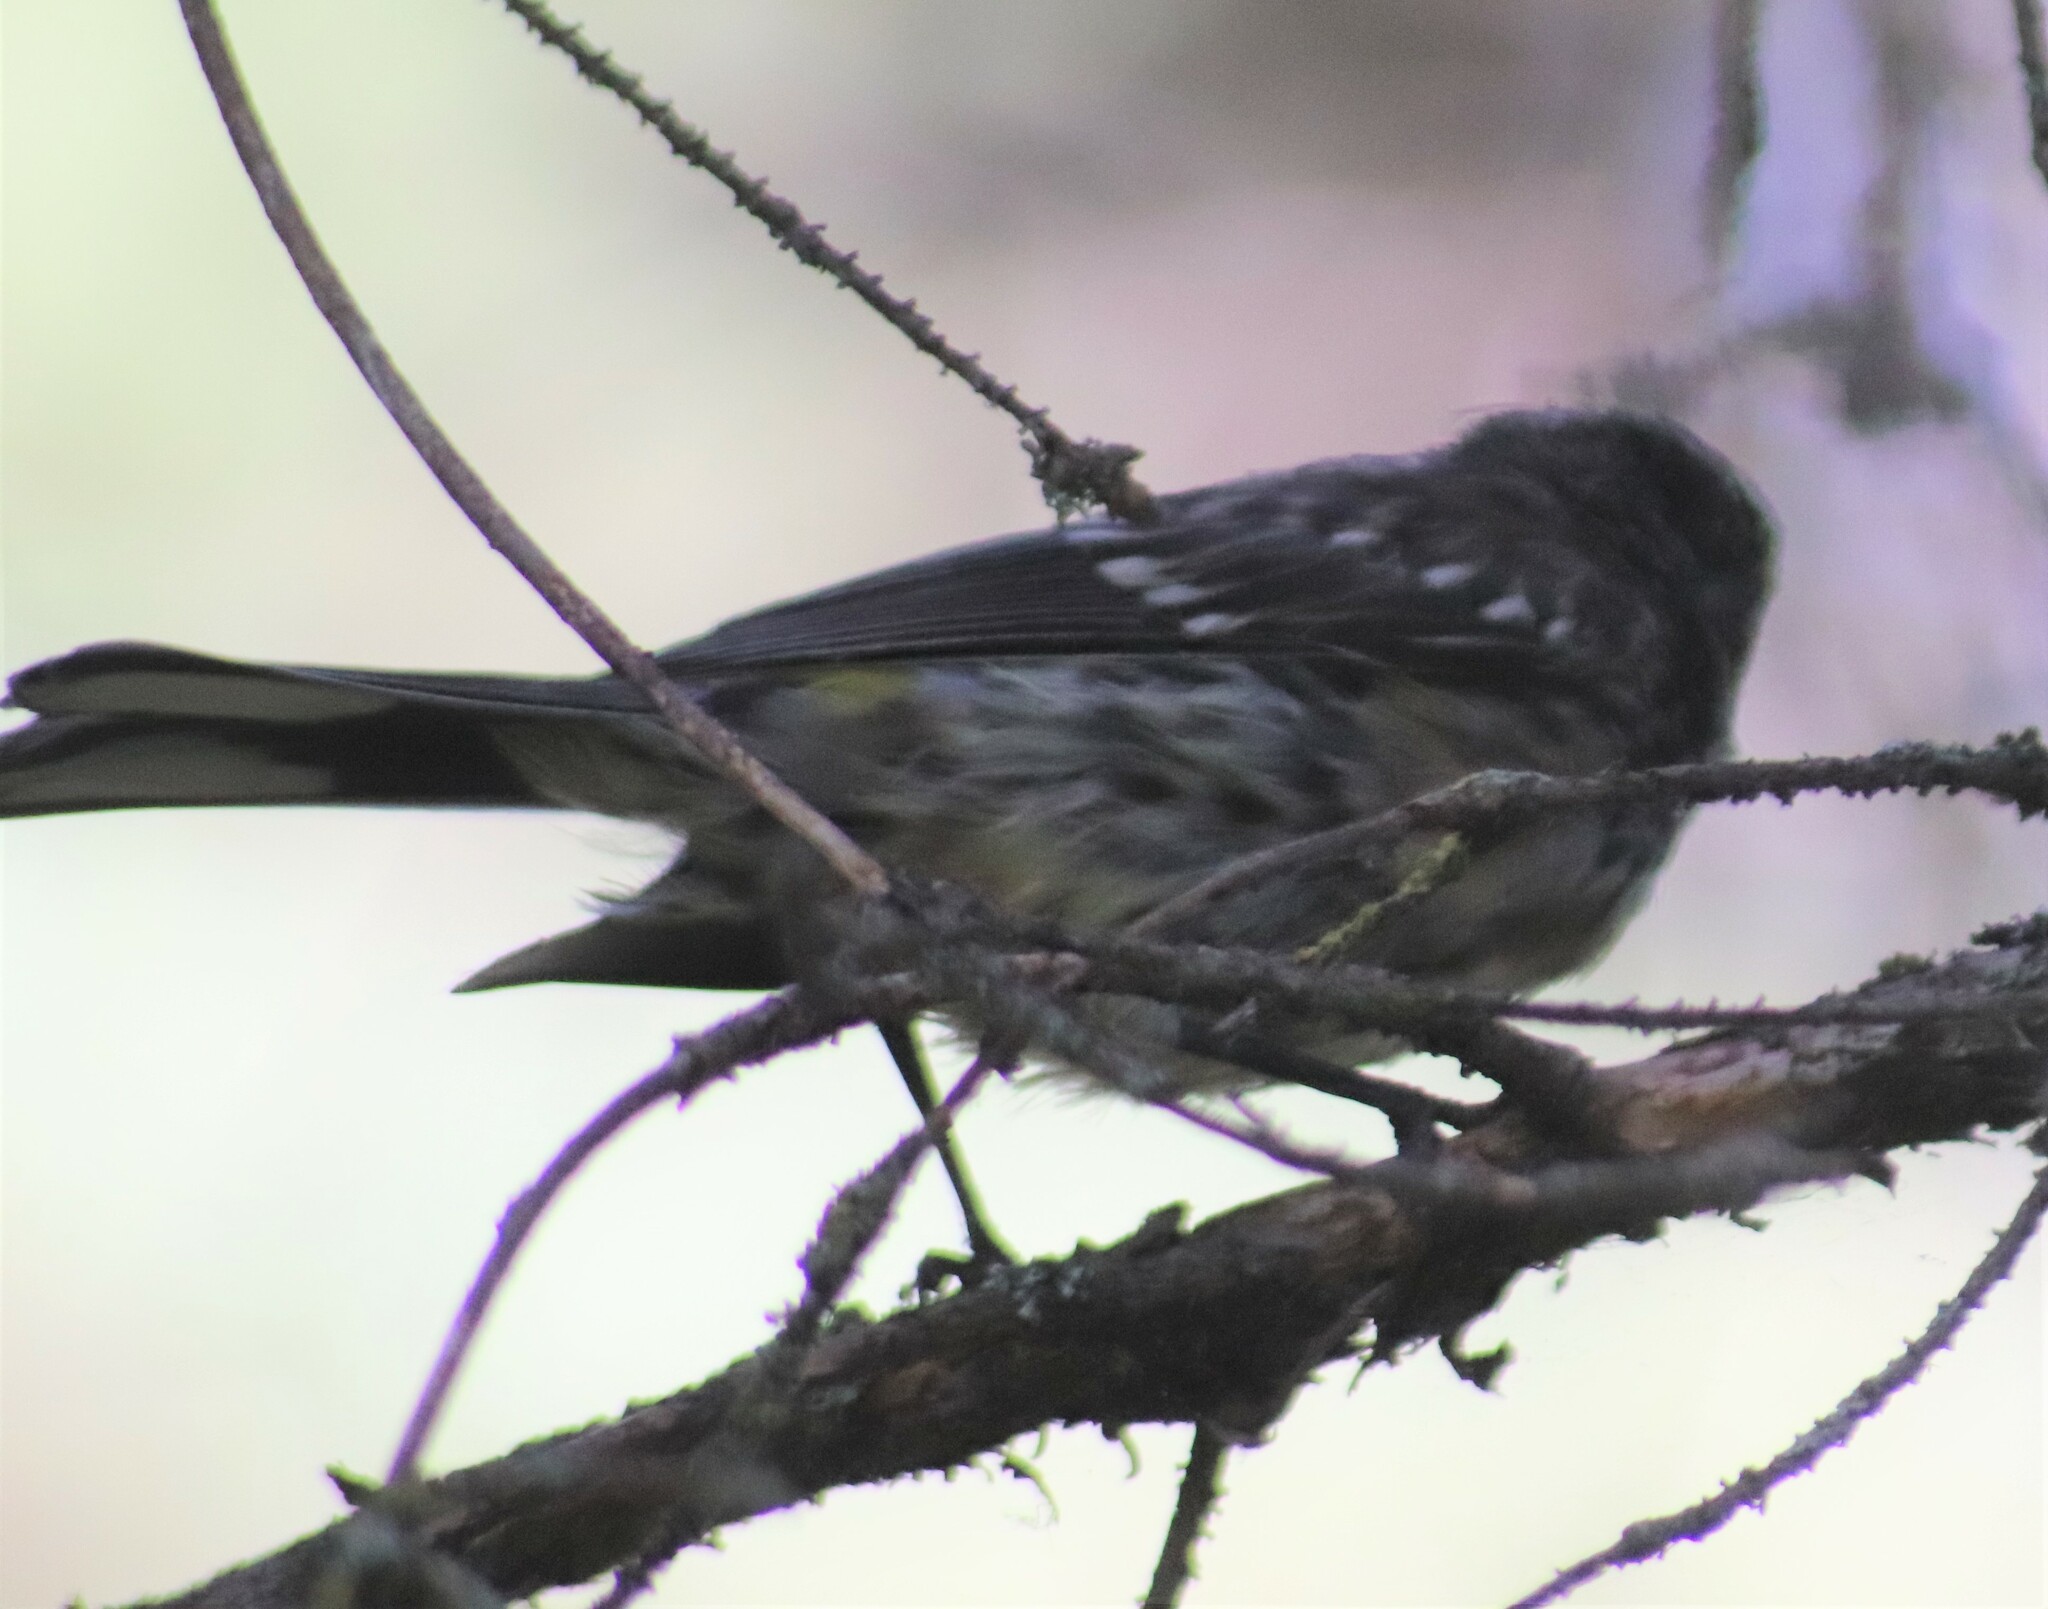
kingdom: Animalia
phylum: Chordata
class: Aves
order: Passeriformes
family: Parulidae
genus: Mniotilta
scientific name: Mniotilta varia
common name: Black-and-white warbler
